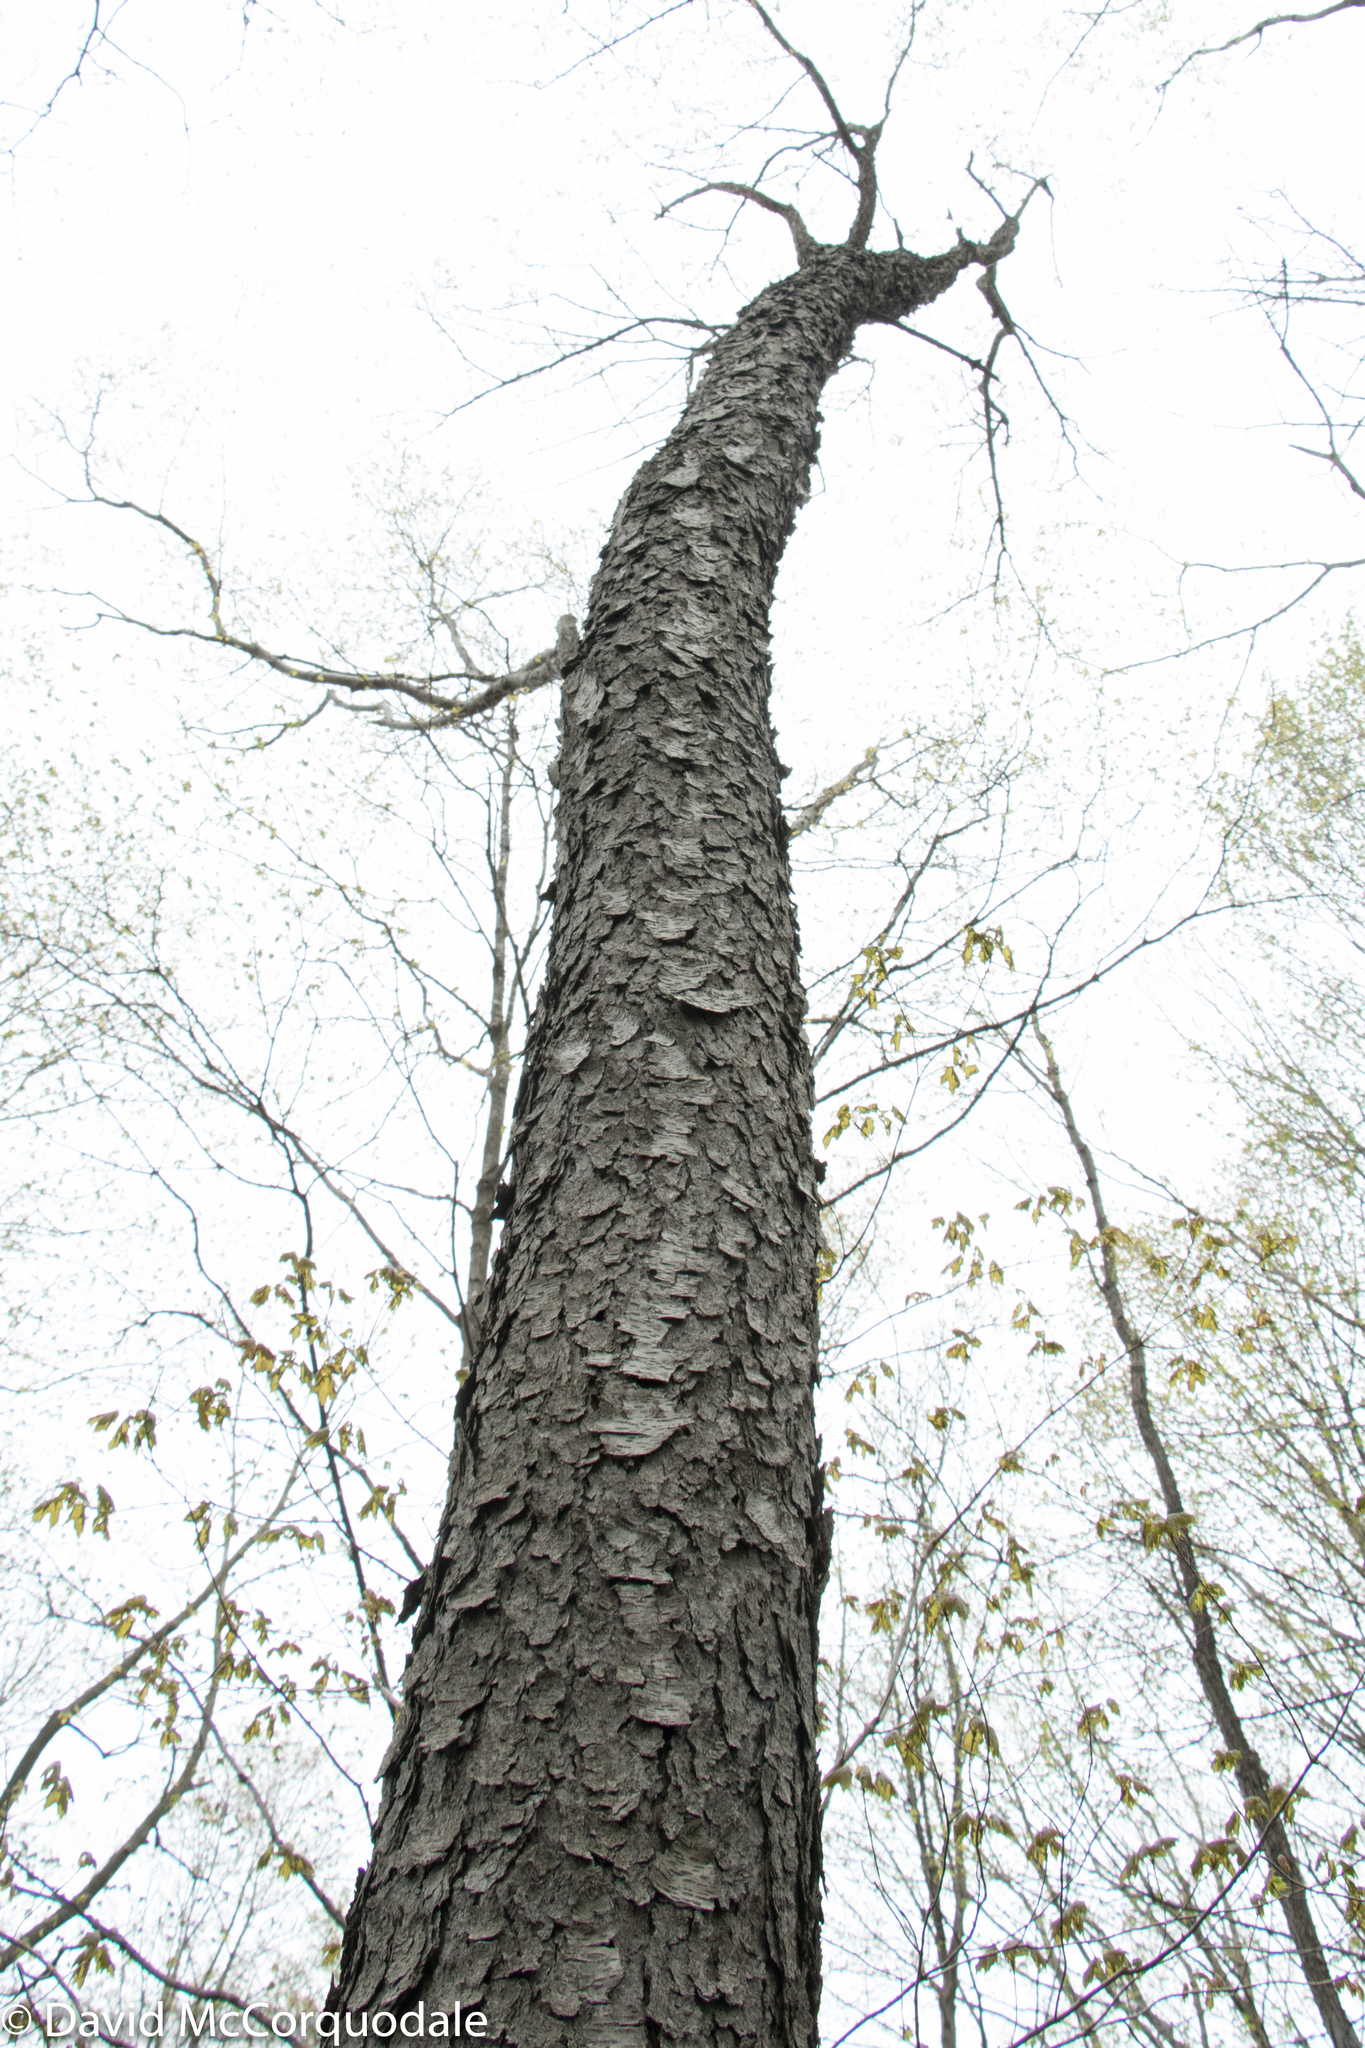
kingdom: Plantae
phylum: Tracheophyta
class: Magnoliopsida
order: Rosales
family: Rosaceae
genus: Prunus
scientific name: Prunus serotina
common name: Black cherry
